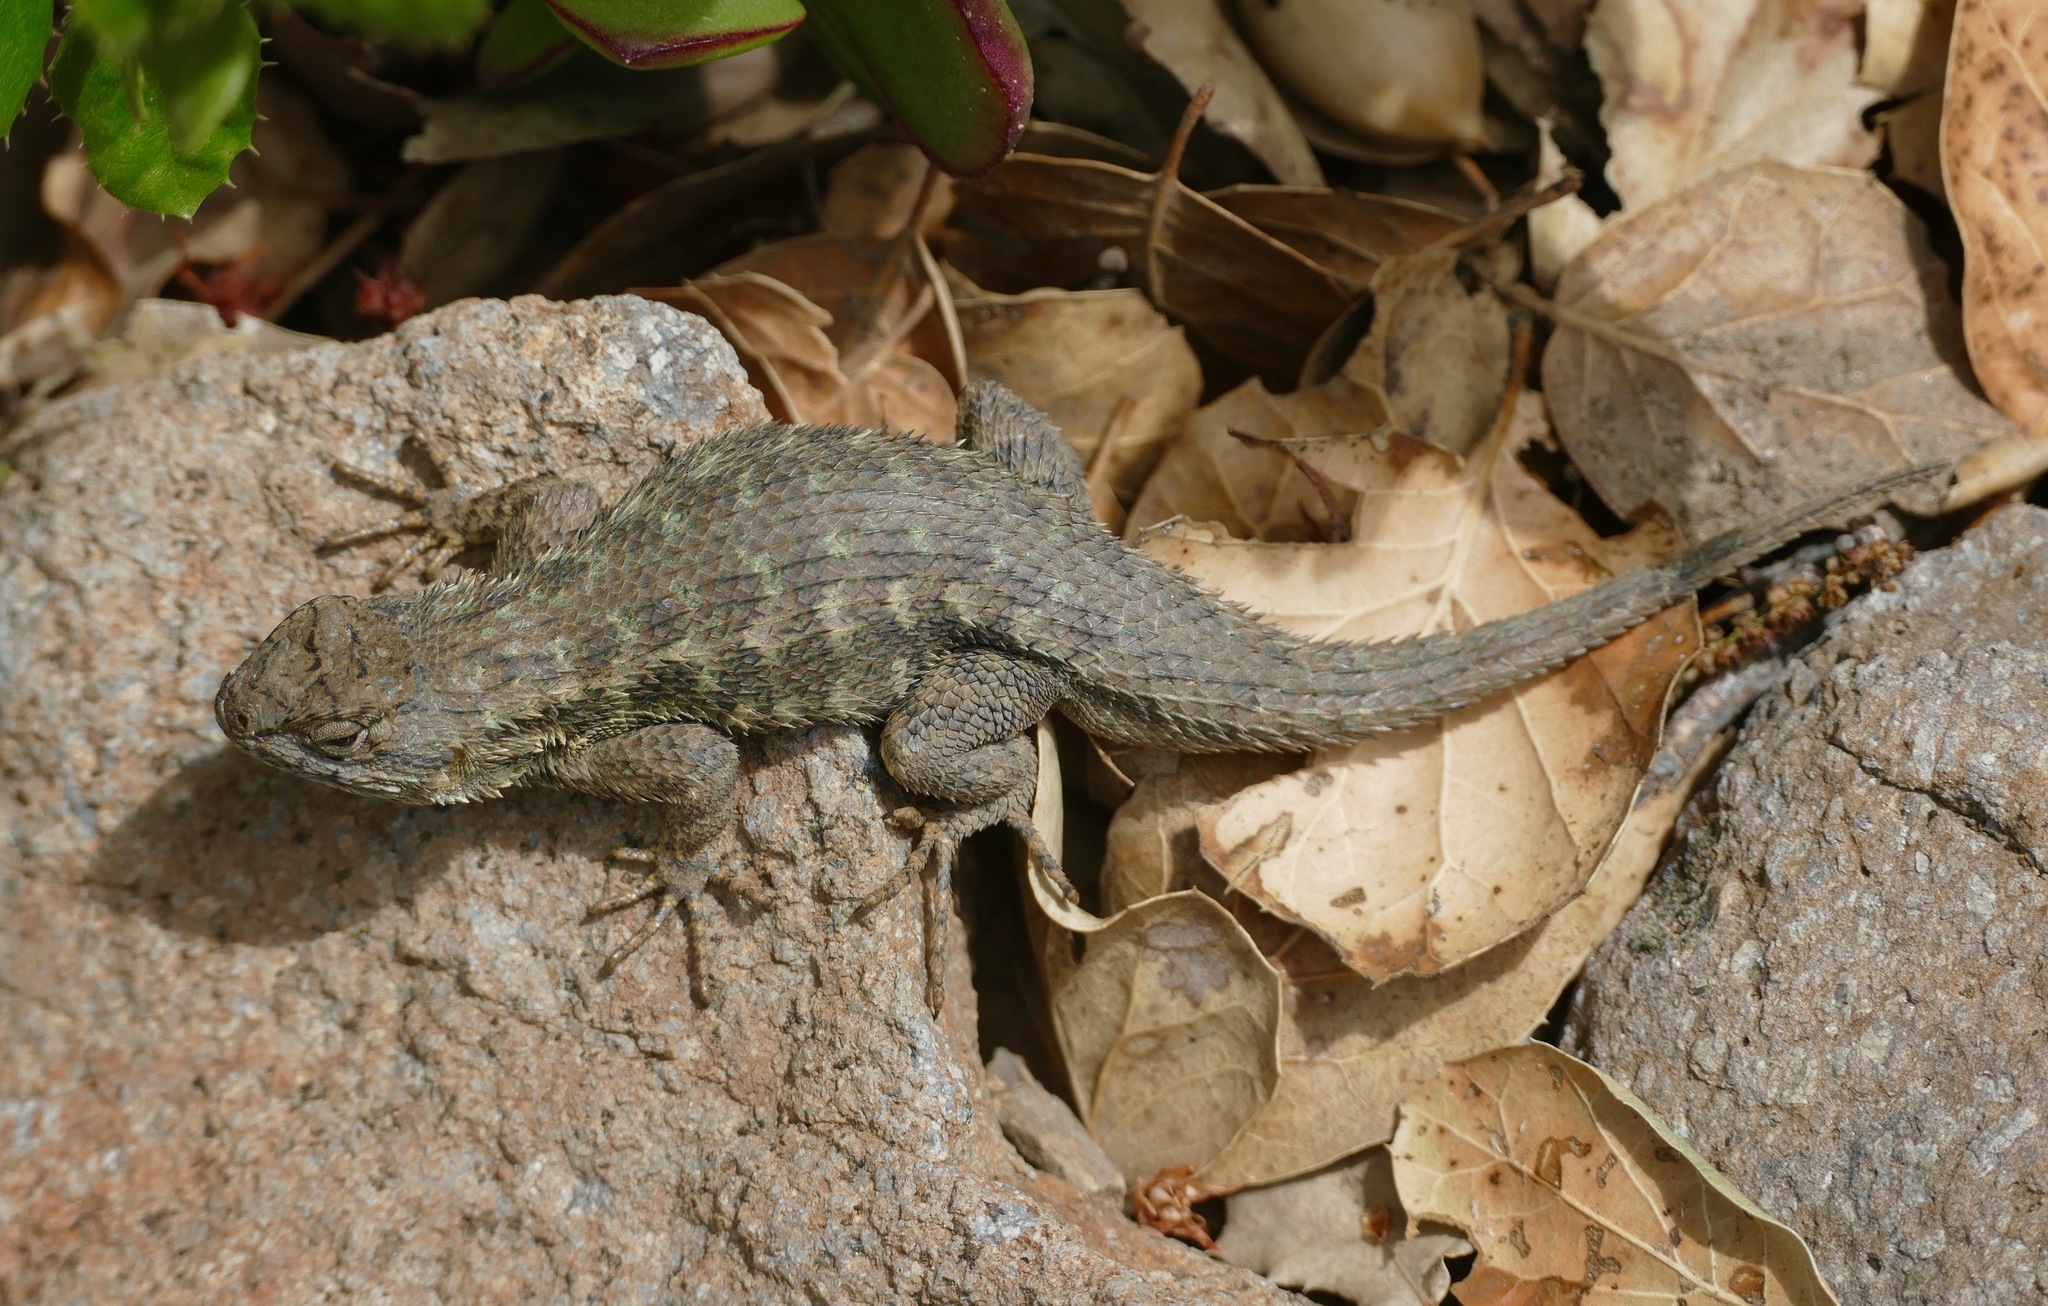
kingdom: Animalia
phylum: Chordata
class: Squamata
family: Phrynosomatidae
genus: Sceloporus
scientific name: Sceloporus occidentalis
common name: Western fence lizard
